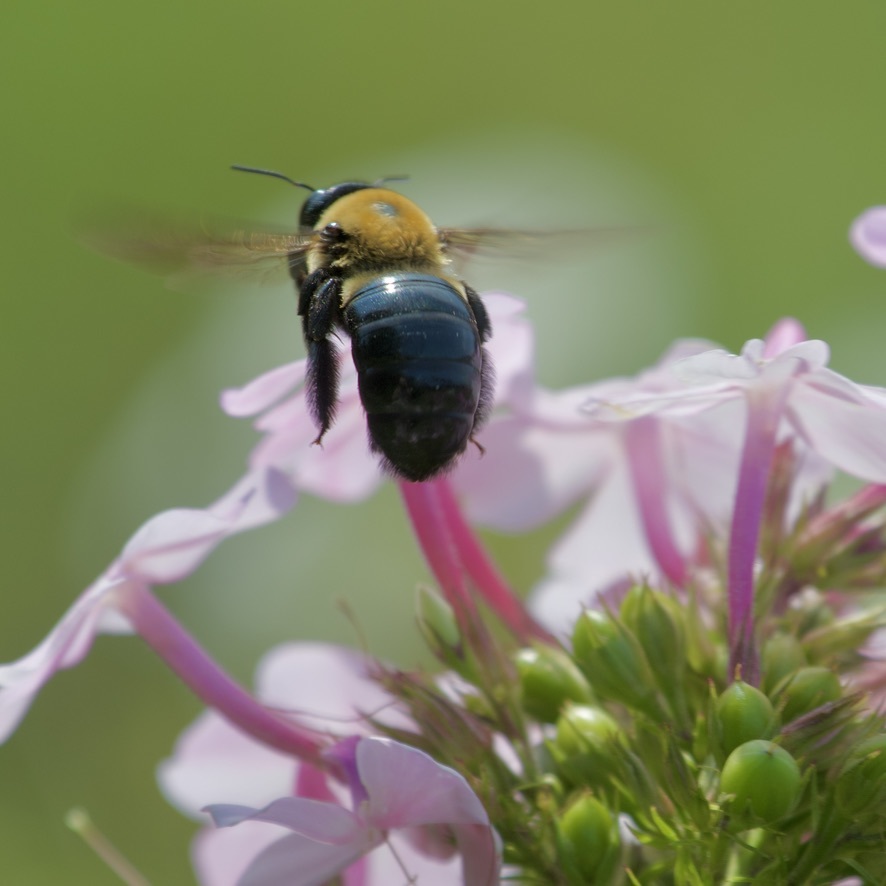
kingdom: Animalia
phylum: Arthropoda
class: Insecta
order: Hymenoptera
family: Apidae
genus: Xylocopa
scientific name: Xylocopa virginica
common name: Carpenter bee
